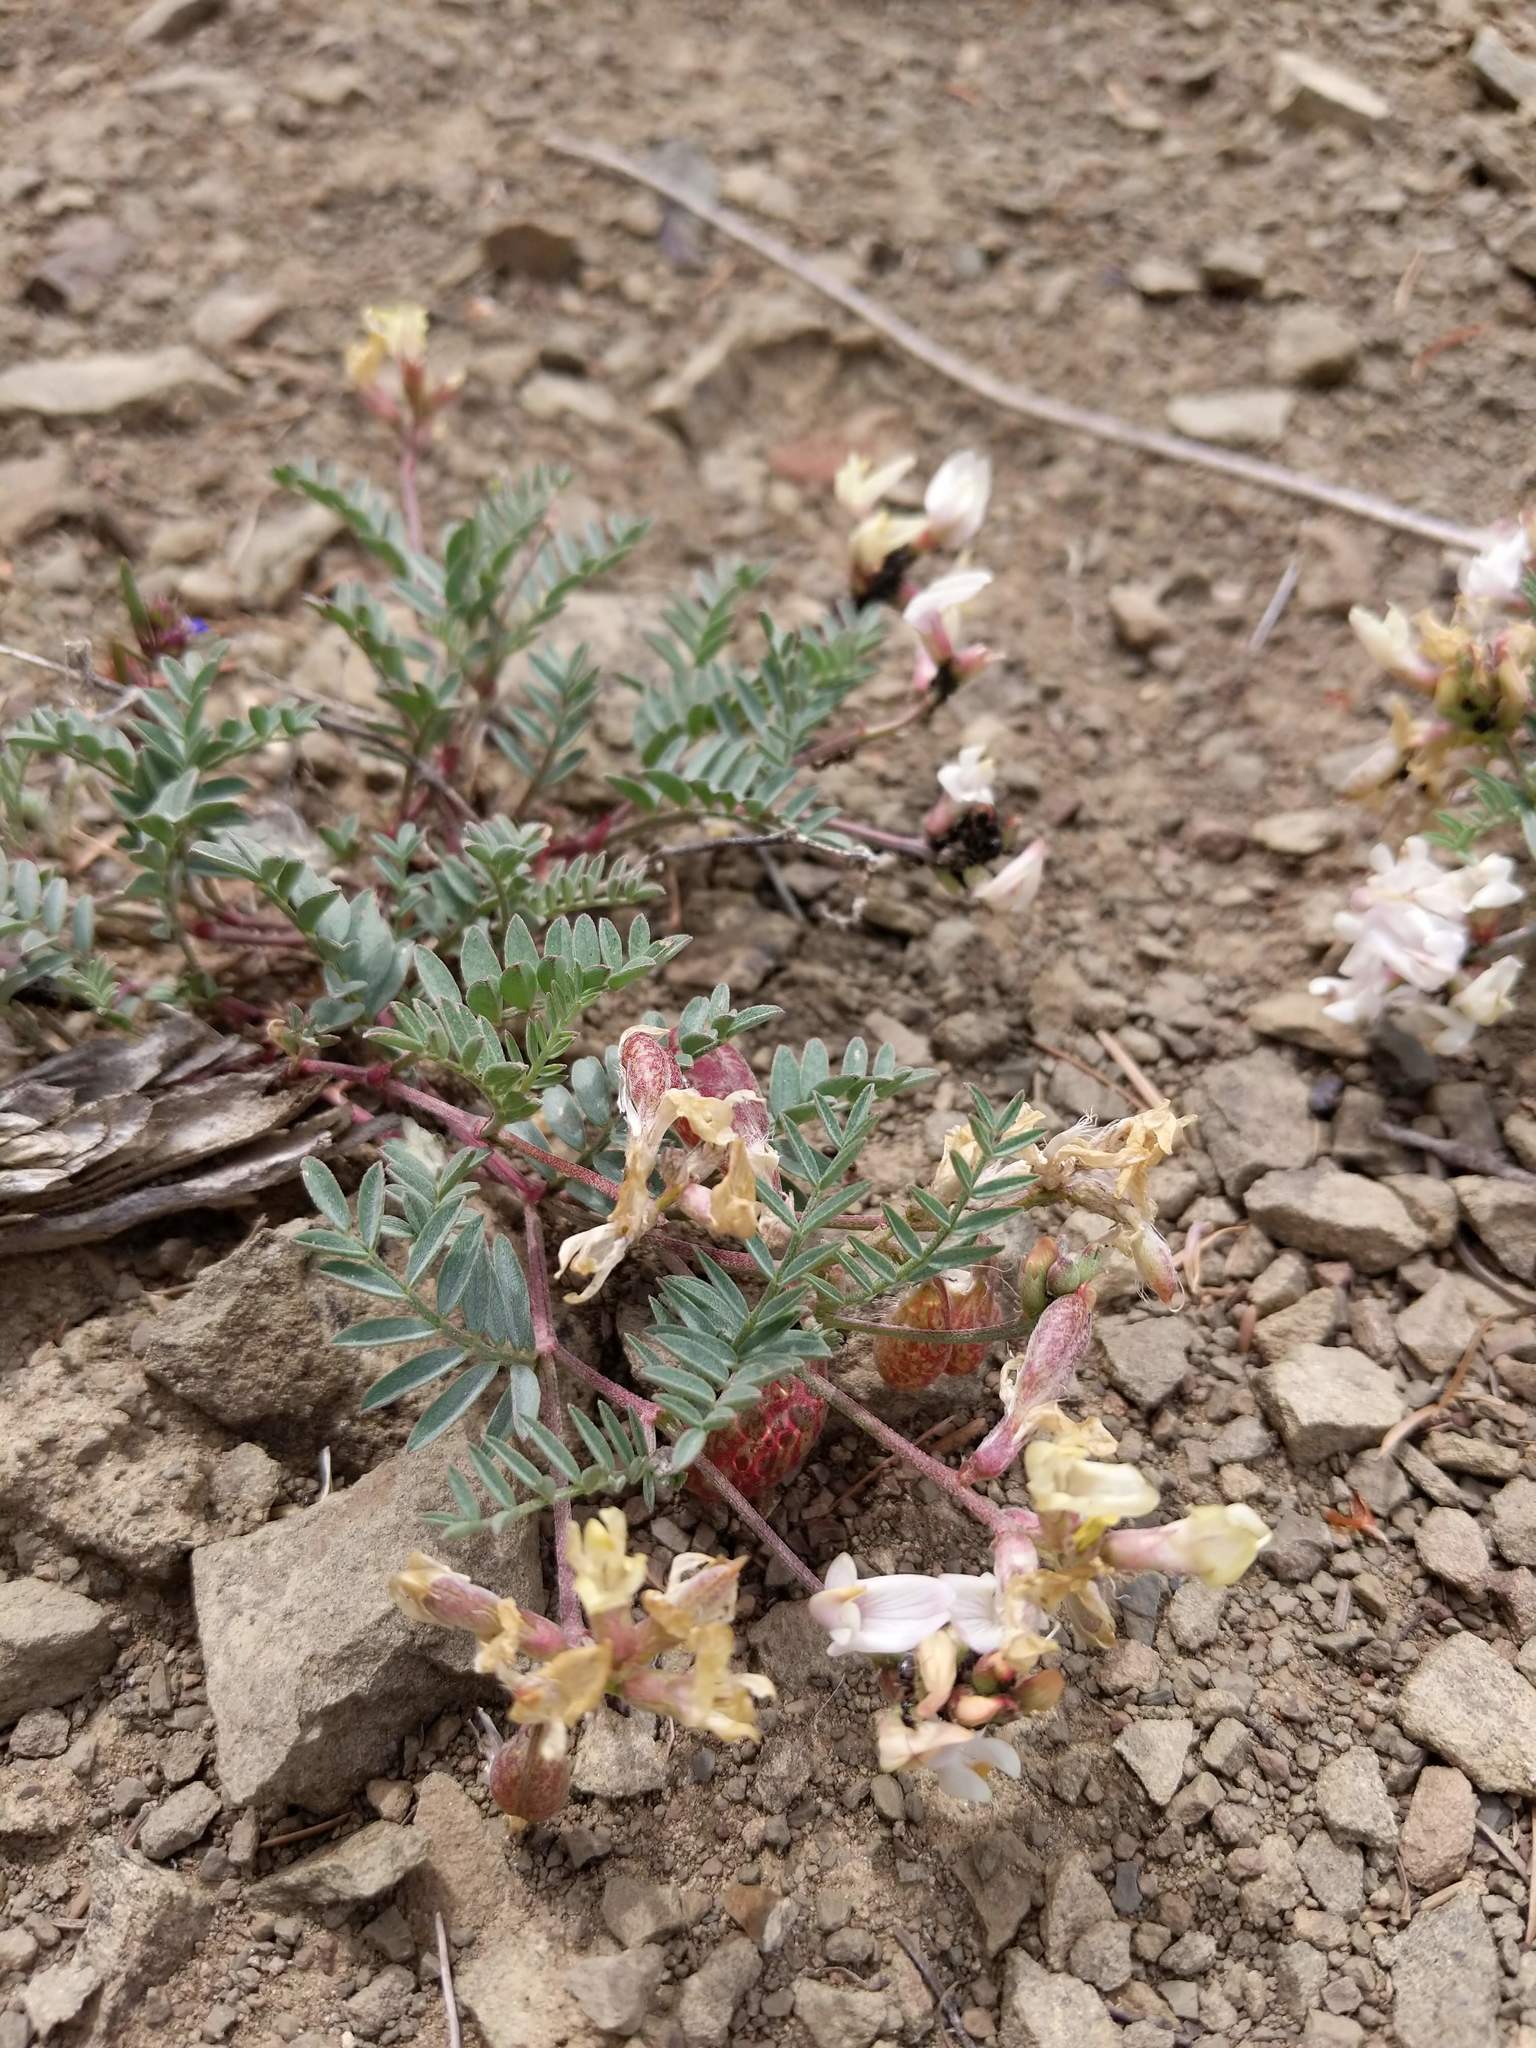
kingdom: Plantae
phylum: Tracheophyta
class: Magnoliopsida
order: Fabales
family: Fabaceae
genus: Astragalus
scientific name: Astragalus whitneyi
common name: Balloonpod milkvetch
